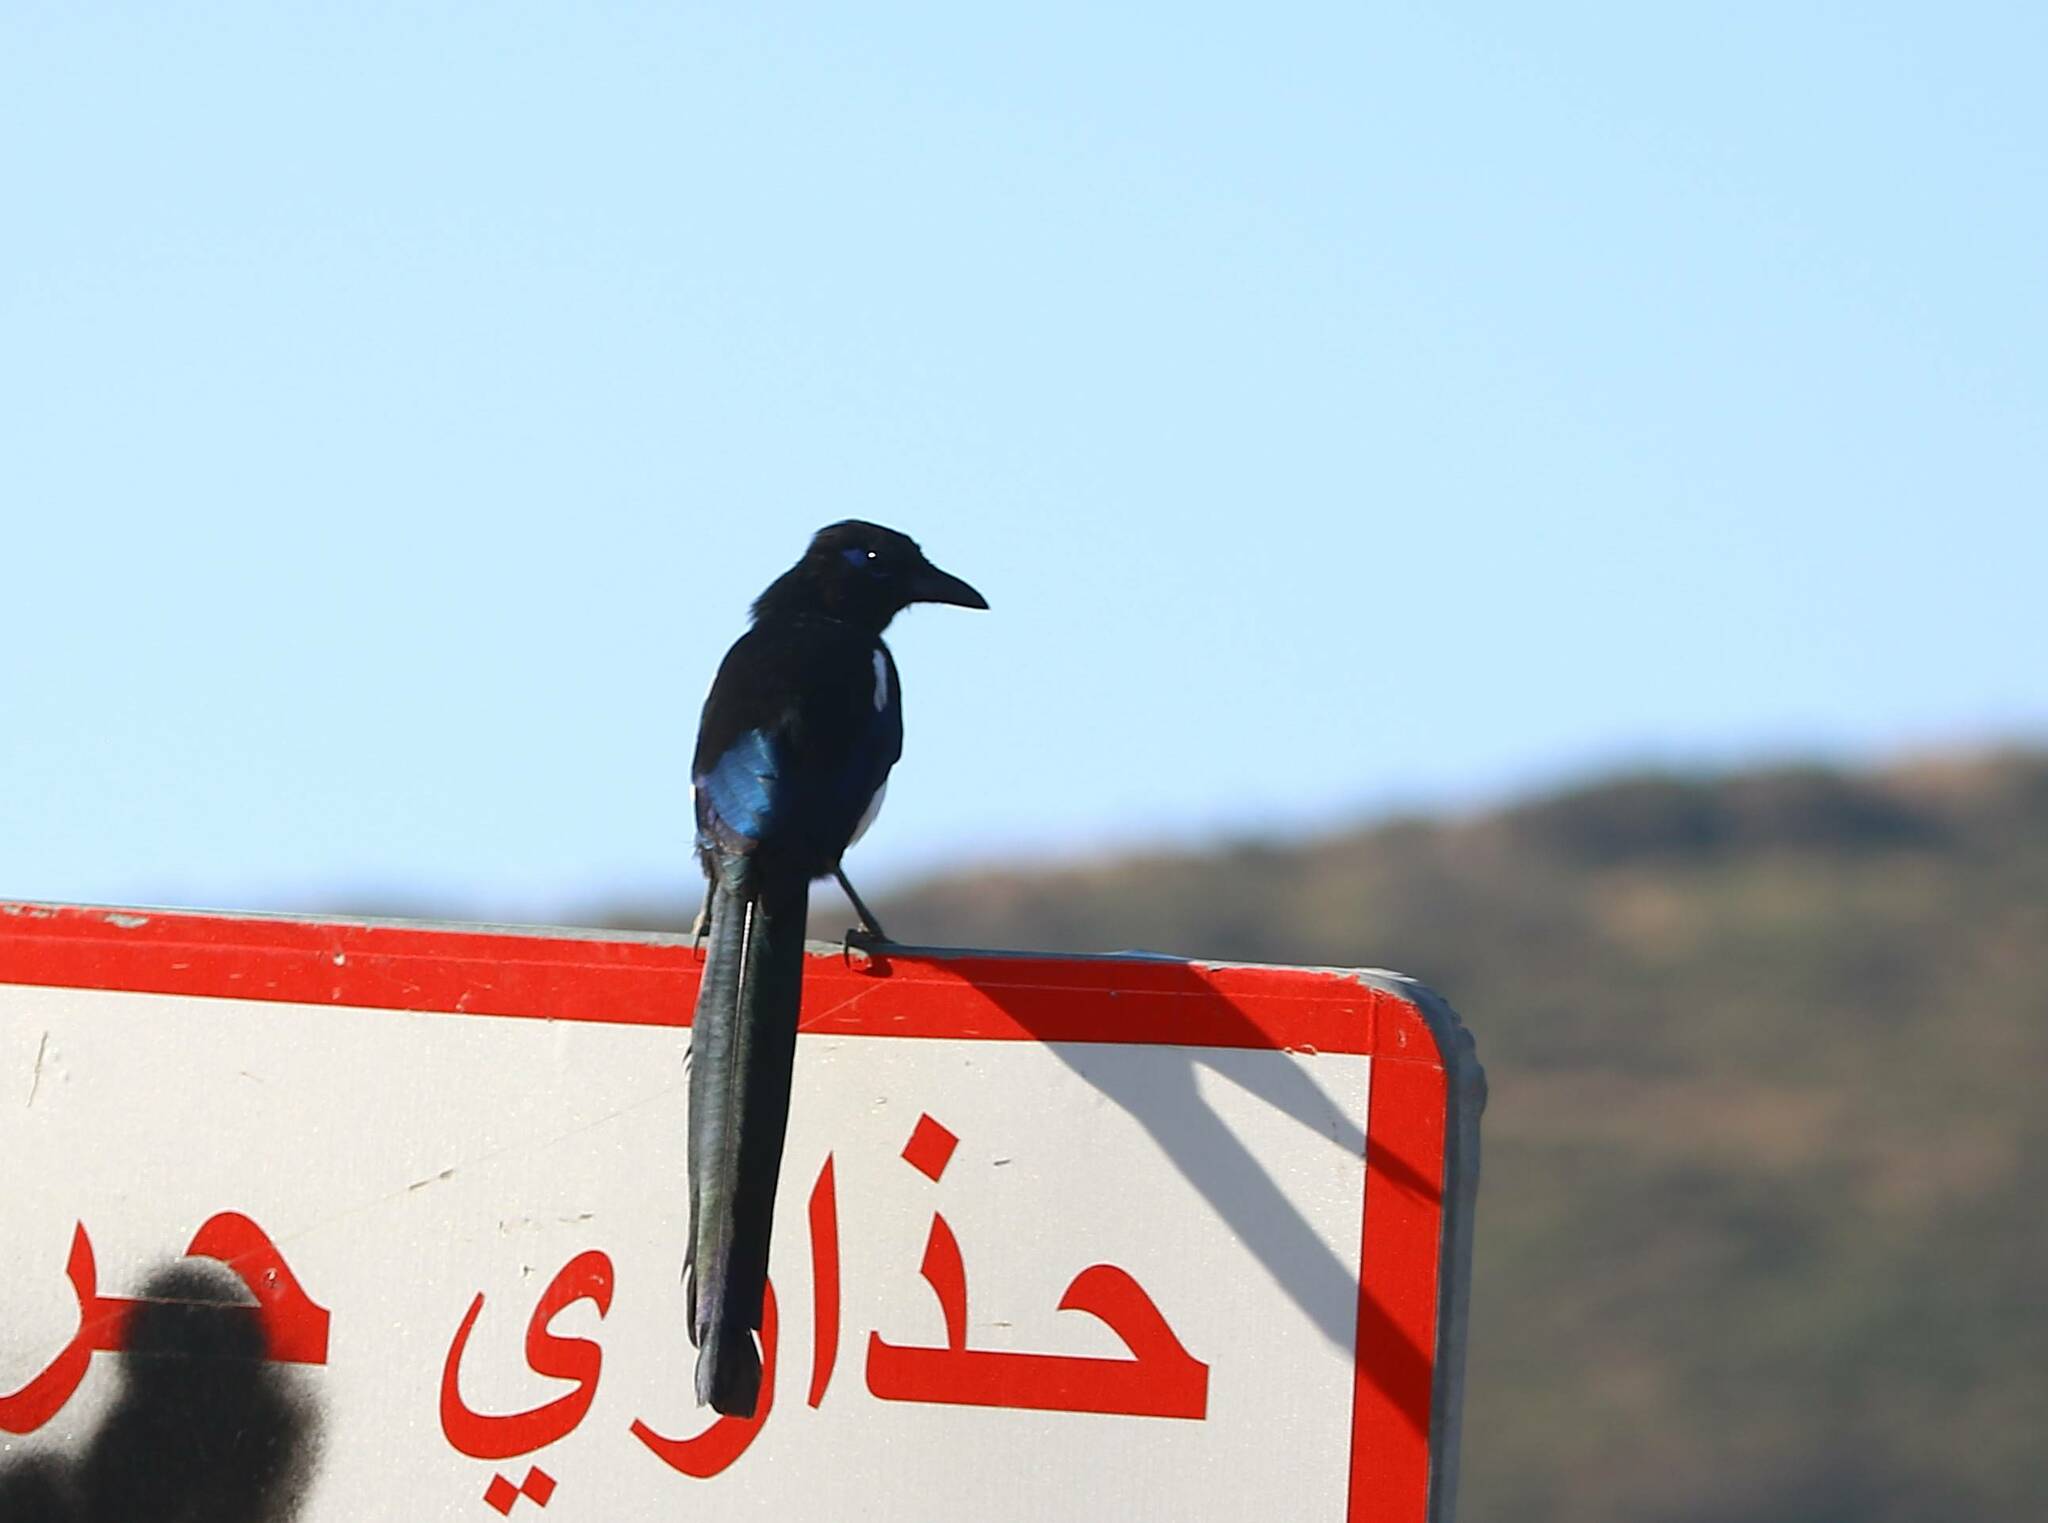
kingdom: Animalia
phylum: Chordata
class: Aves
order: Passeriformes
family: Corvidae
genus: Pica
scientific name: Pica mauritanica
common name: Maghreb magpie
